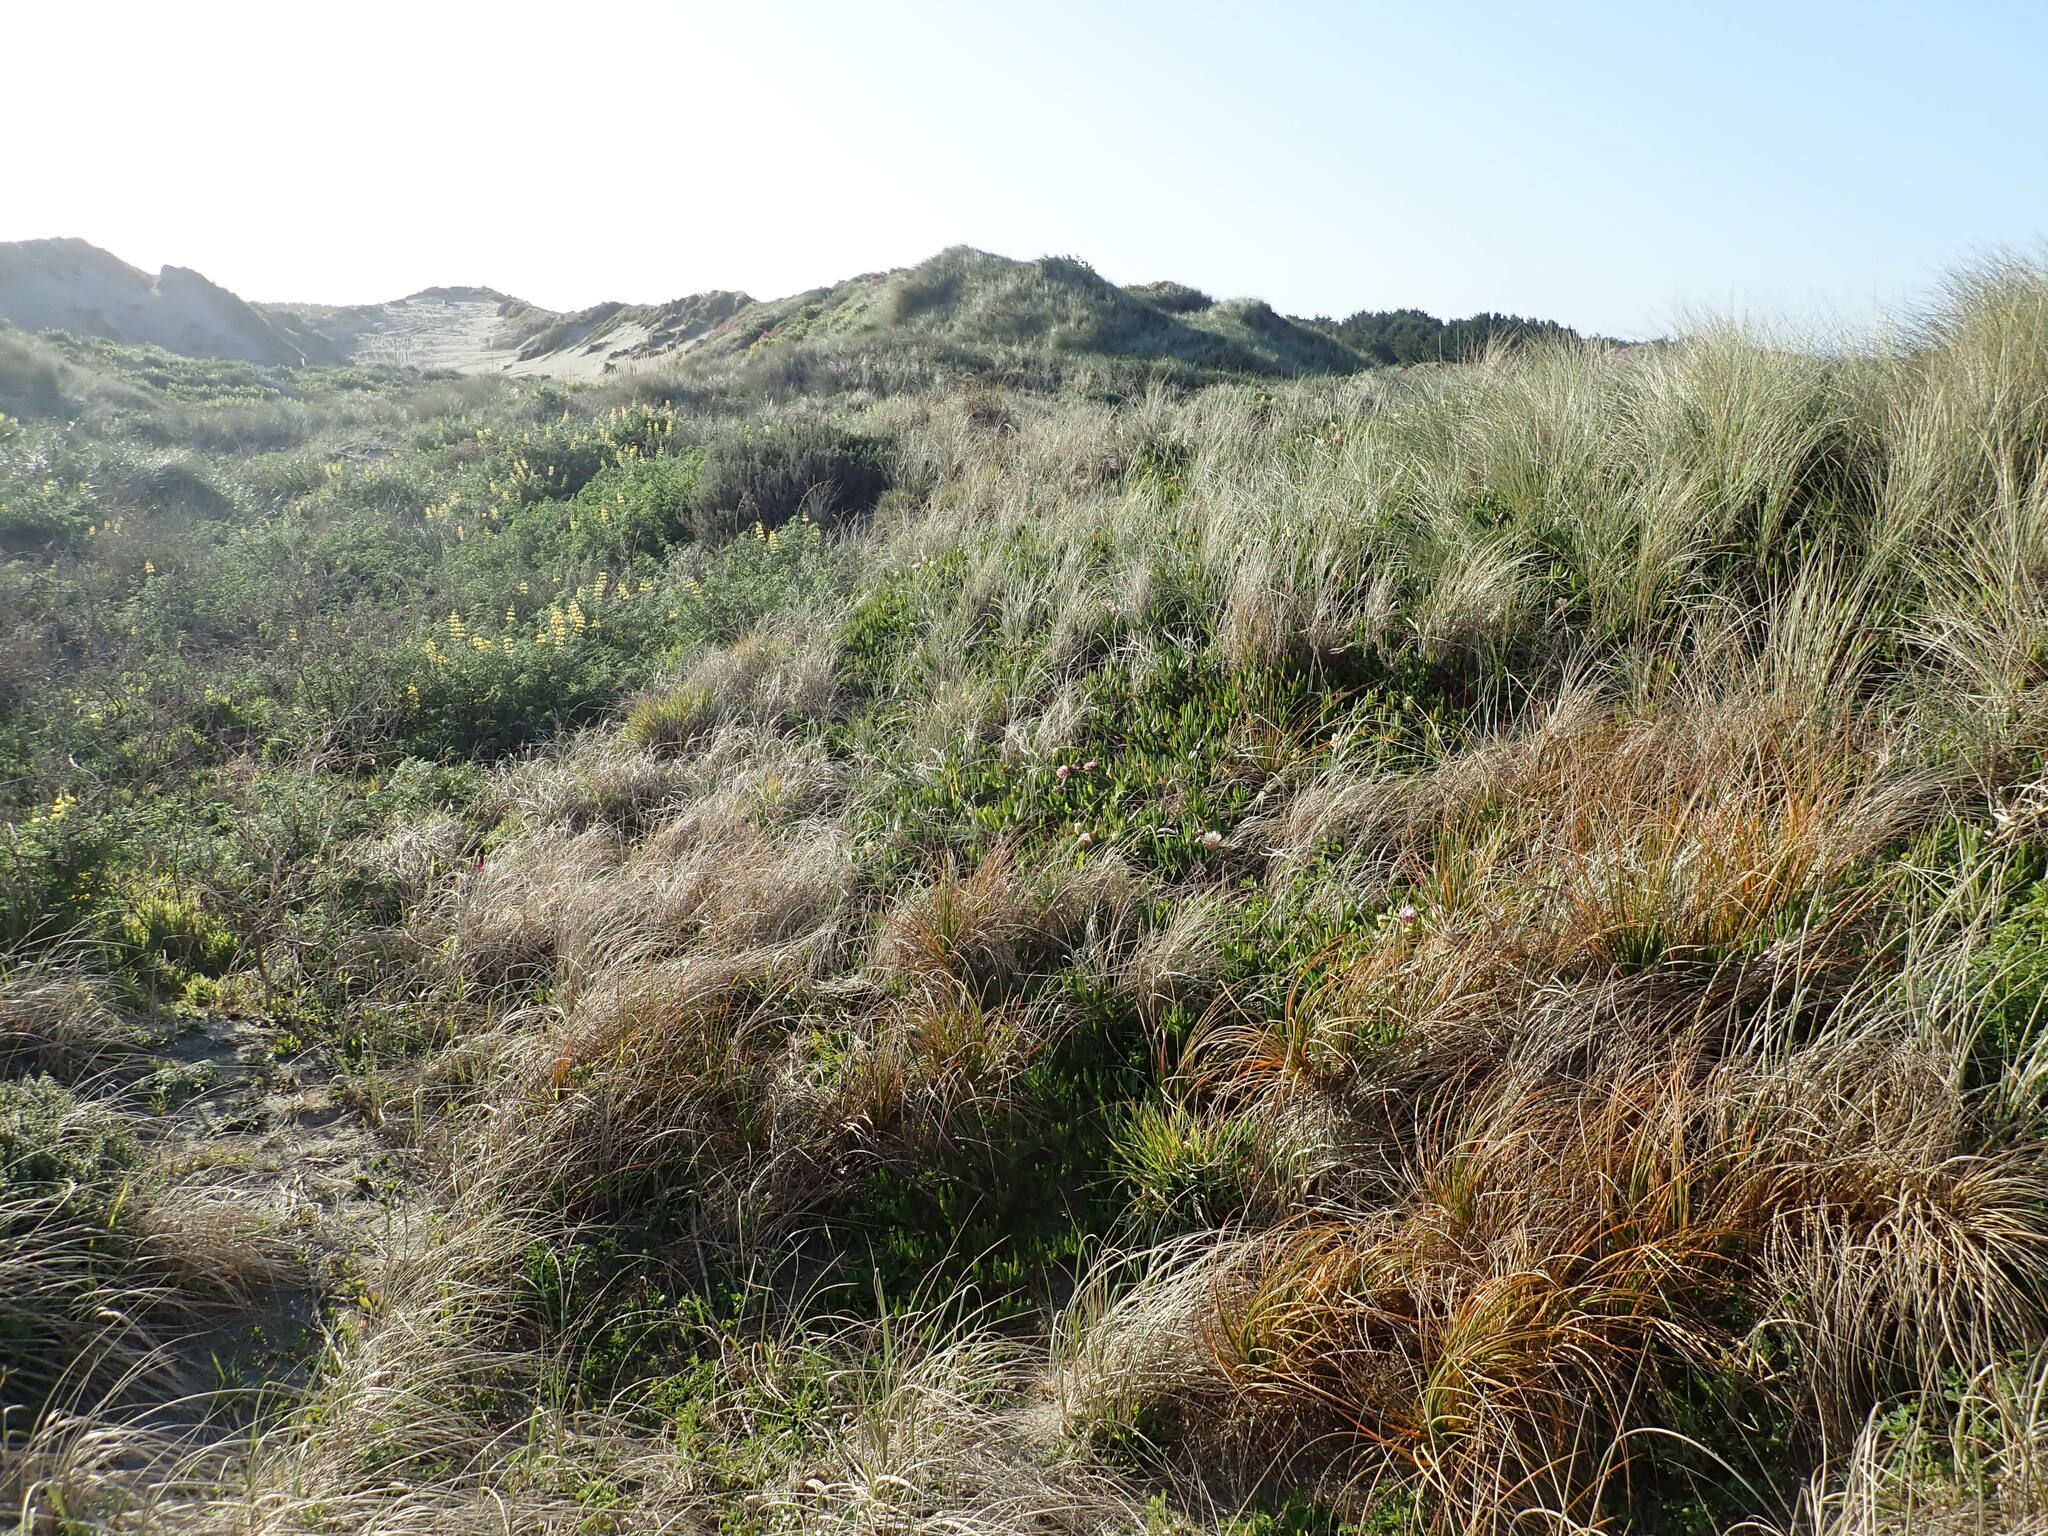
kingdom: Plantae
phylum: Tracheophyta
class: Magnoliopsida
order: Caryophyllales
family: Aizoaceae
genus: Carpobrotus
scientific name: Carpobrotus edulis
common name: Hottentot-fig
